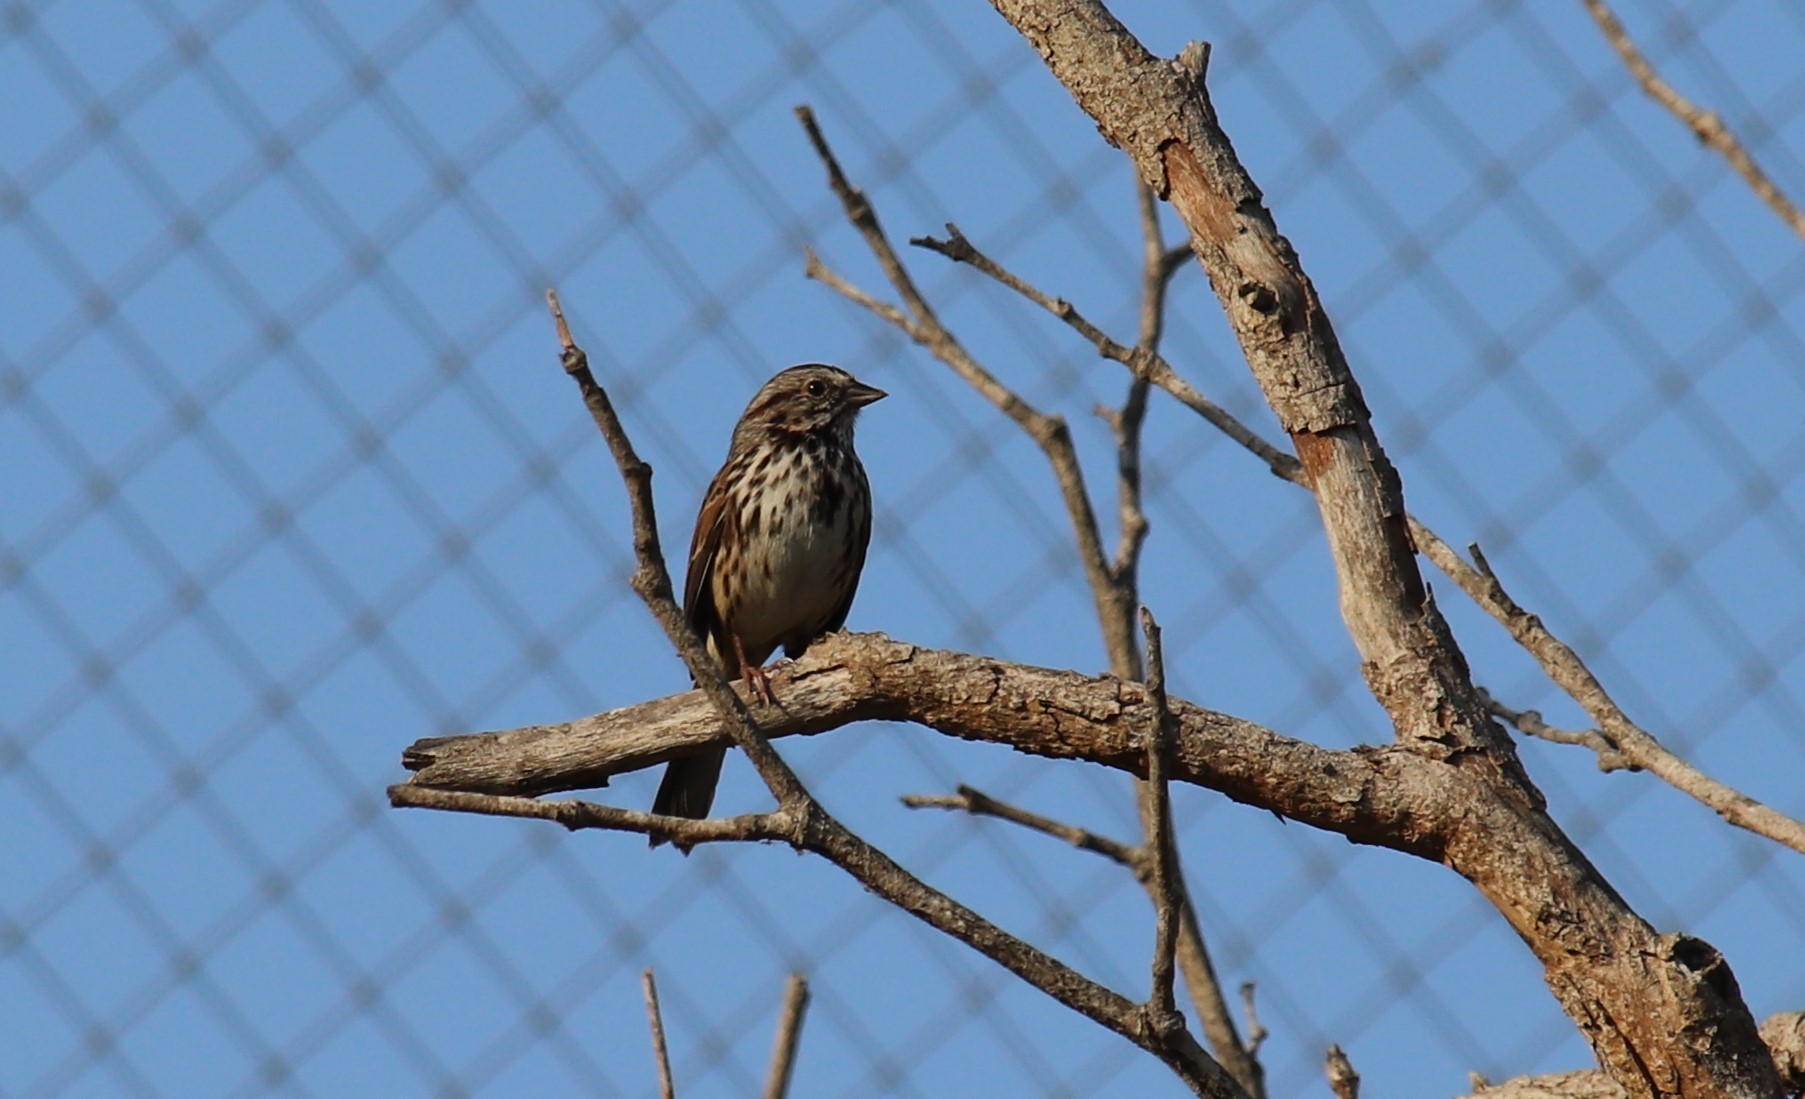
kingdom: Animalia
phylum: Chordata
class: Aves
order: Passeriformes
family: Passerellidae
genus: Melospiza
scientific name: Melospiza melodia
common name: Song sparrow
